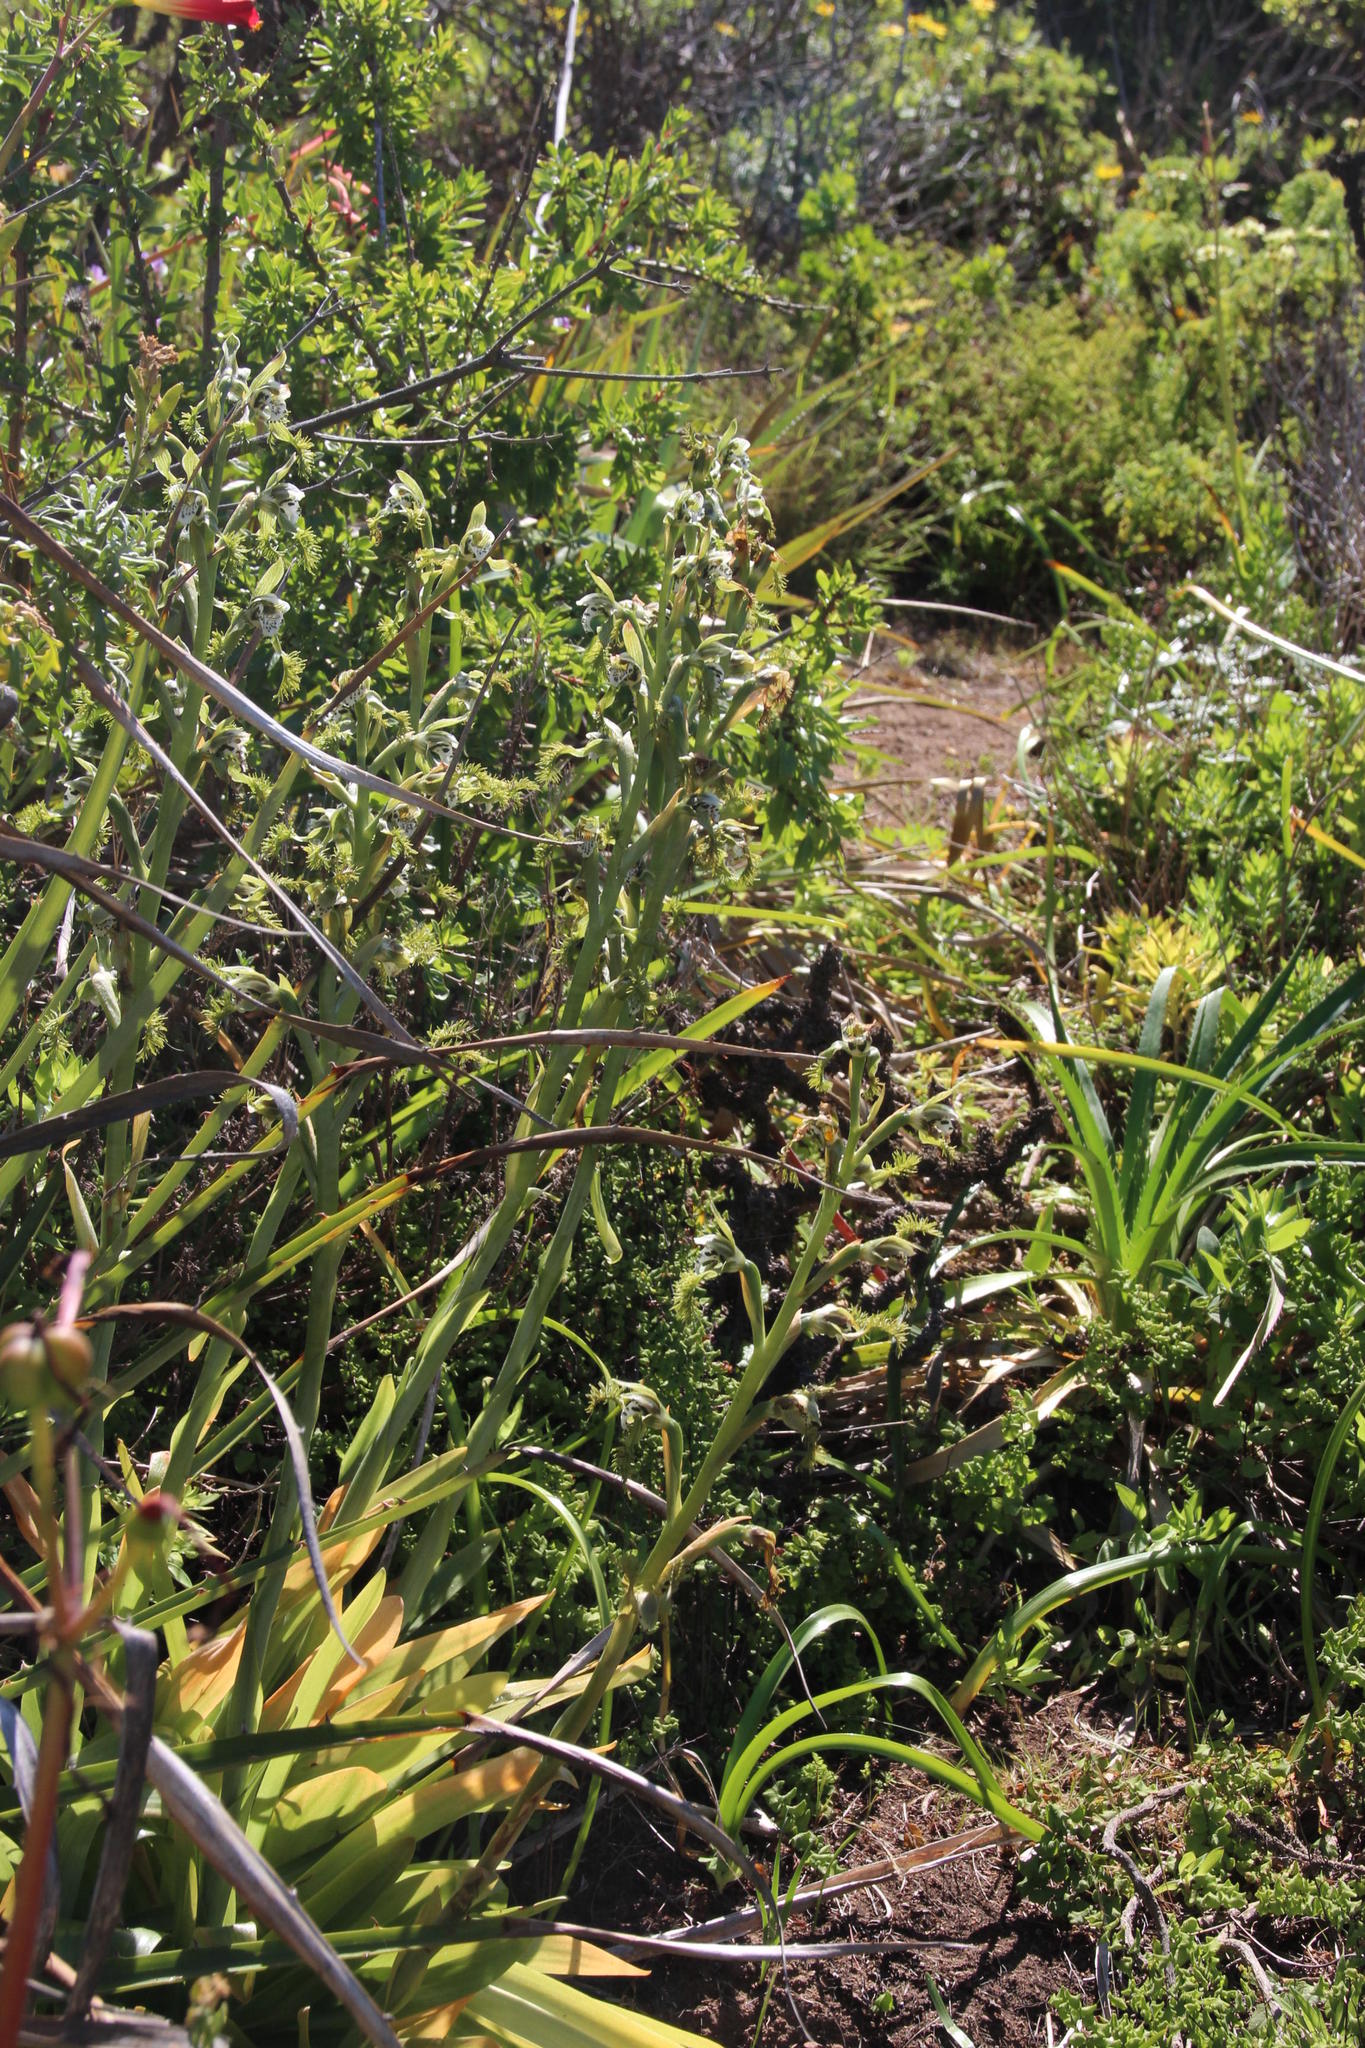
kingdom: Plantae
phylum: Tracheophyta
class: Liliopsida
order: Asparagales
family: Orchidaceae
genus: Bipinnula
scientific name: Bipinnula fimbriata
